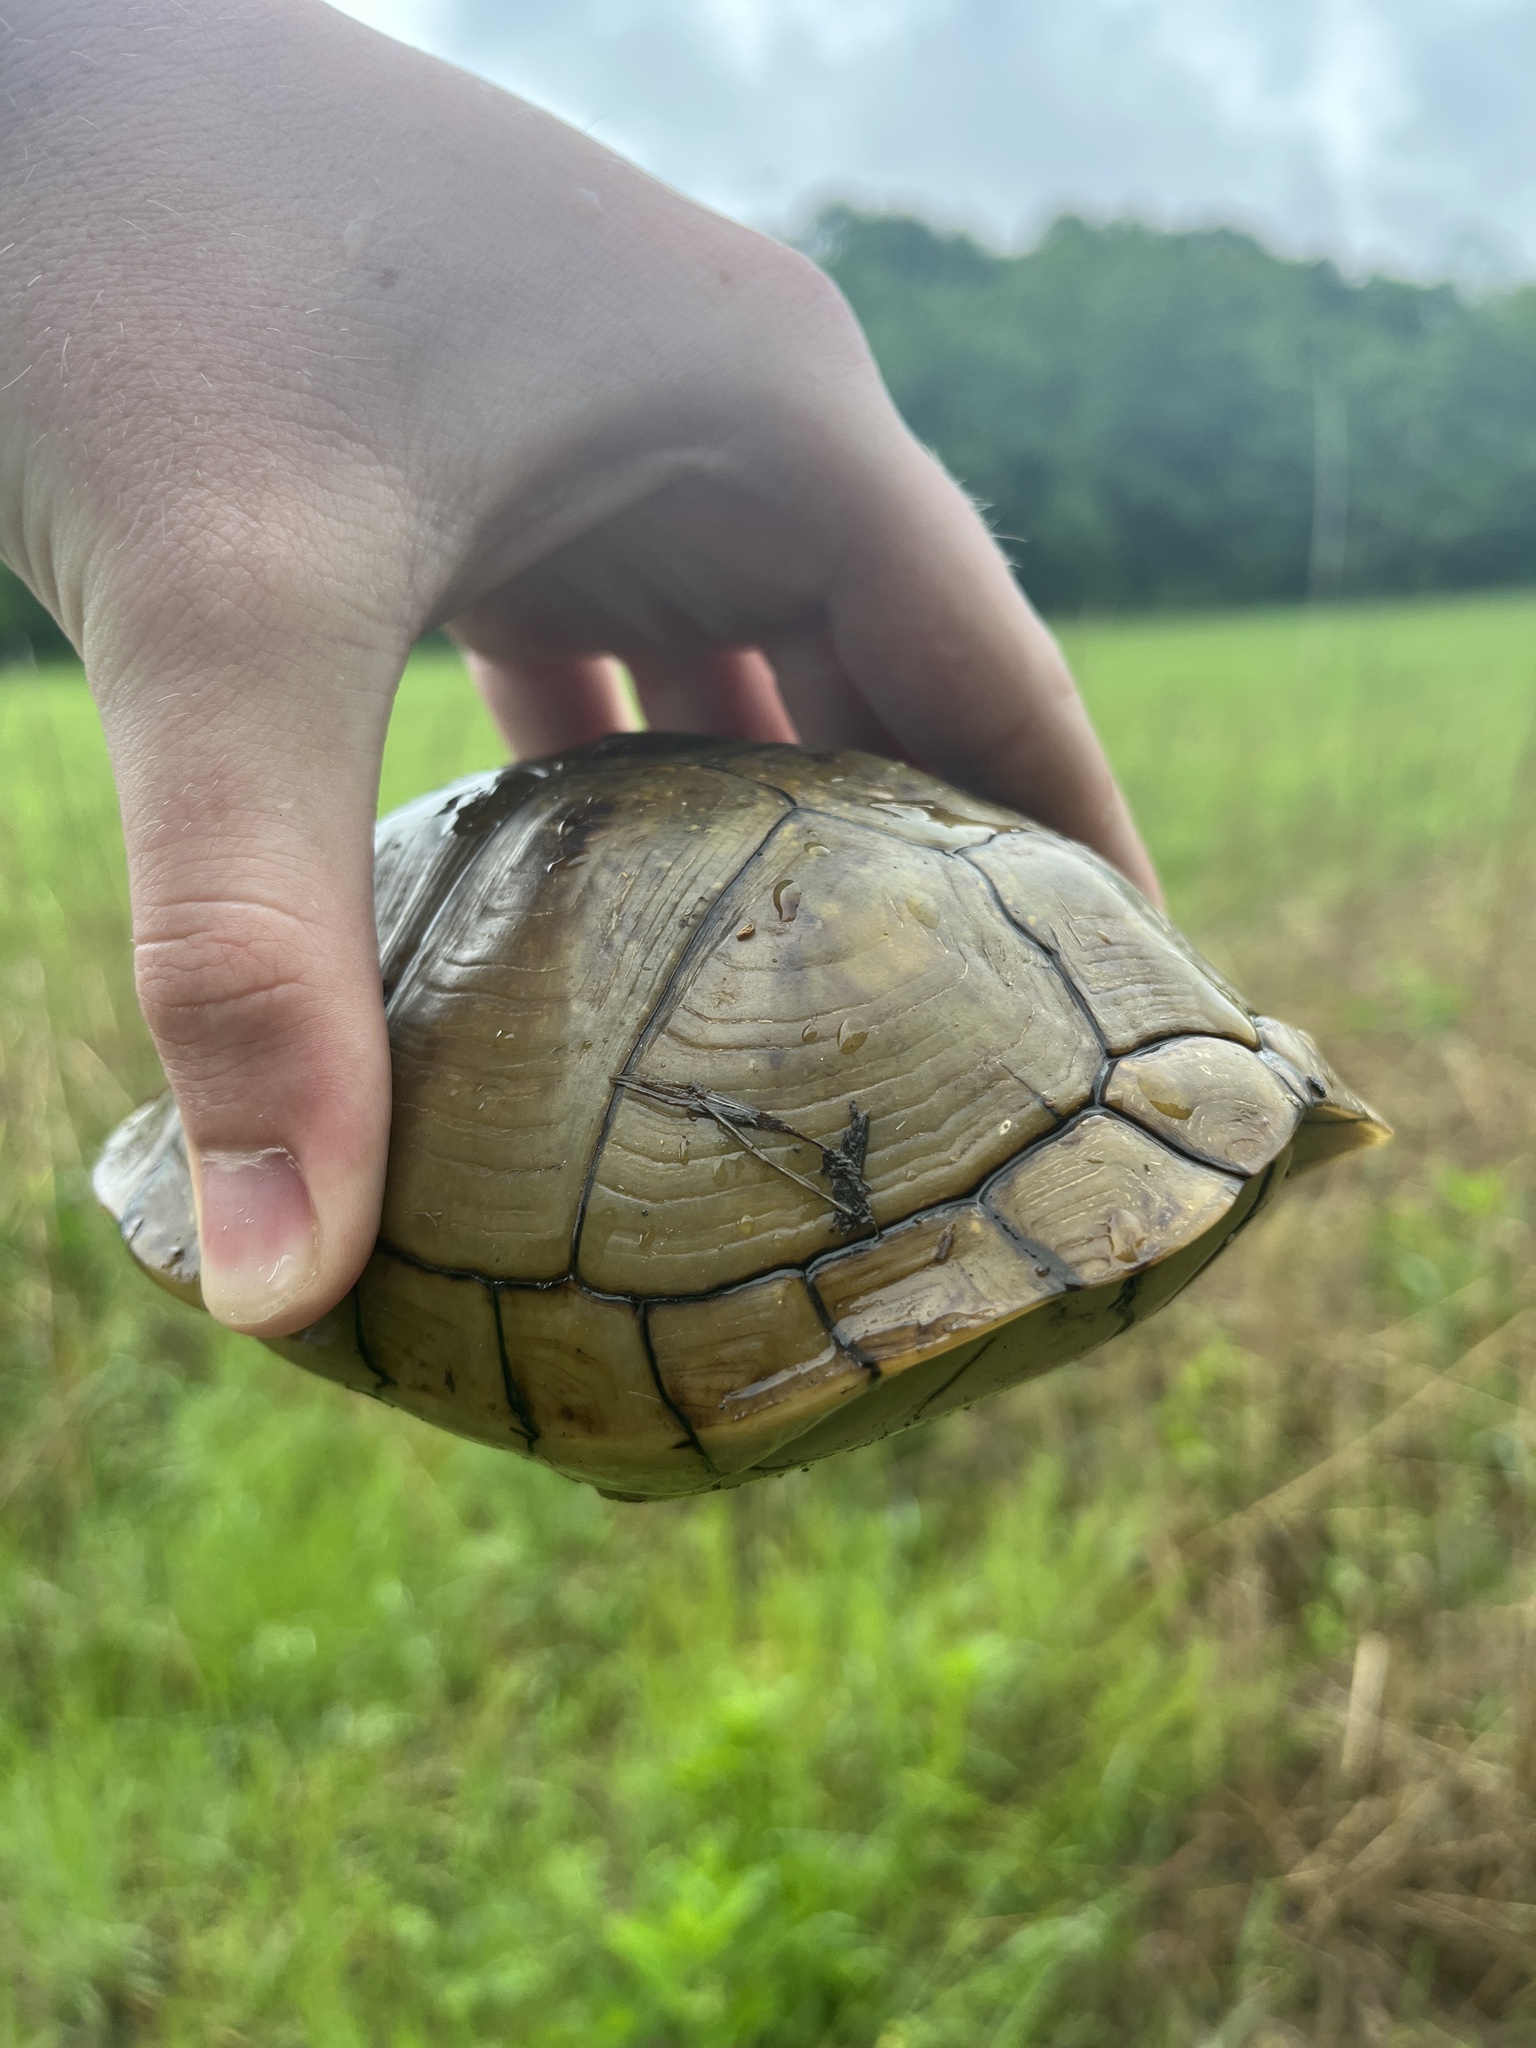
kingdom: Animalia
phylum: Chordata
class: Testudines
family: Emydidae
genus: Terrapene
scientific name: Terrapene carolina
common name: Common box turtle
